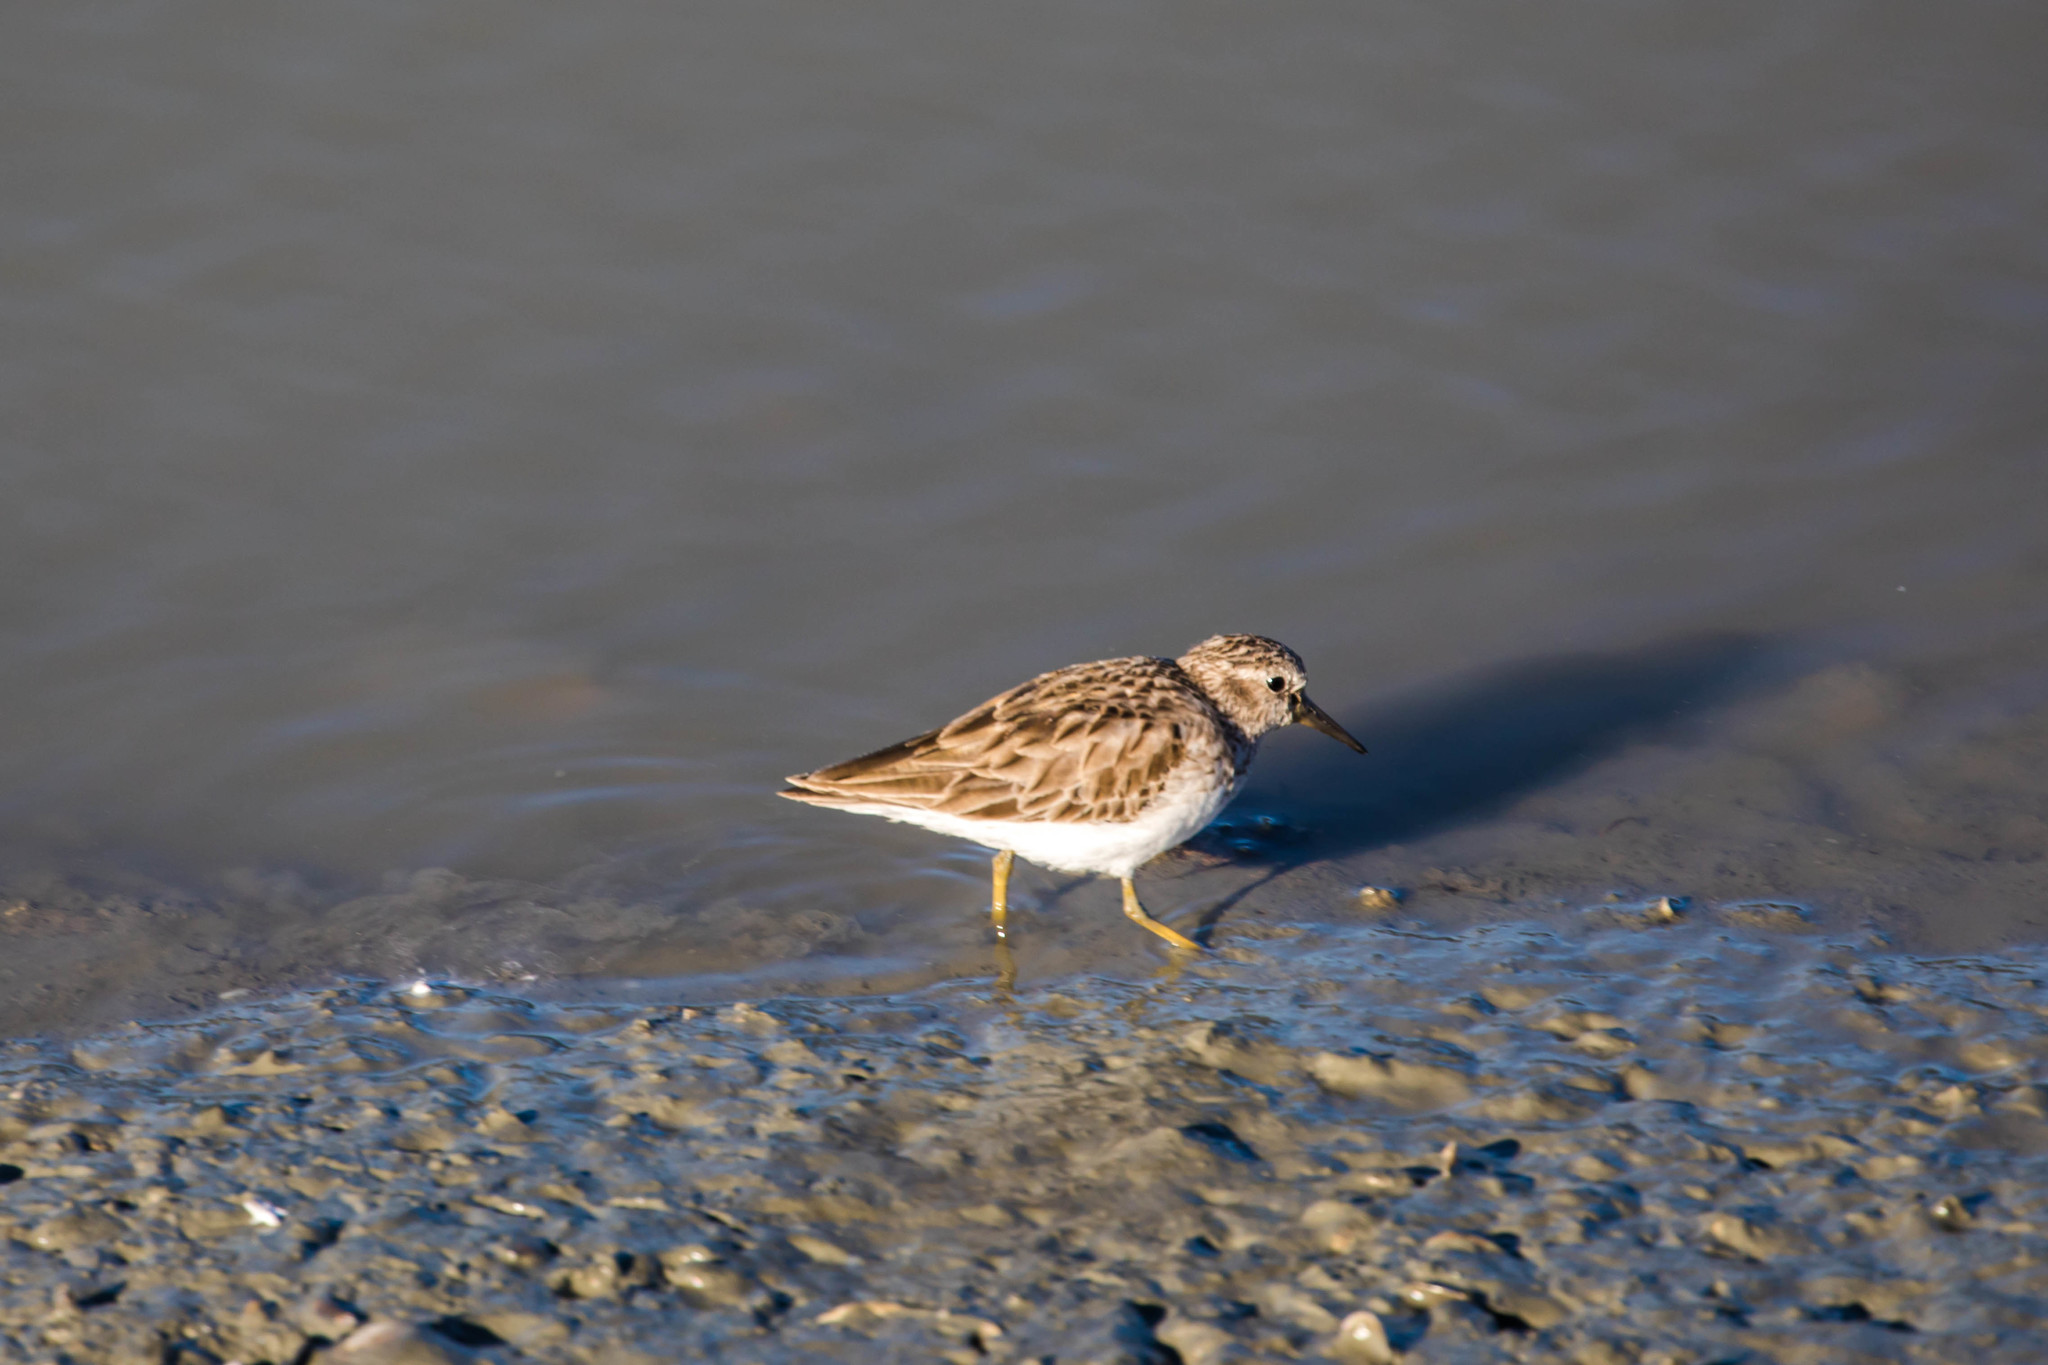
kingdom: Animalia
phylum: Chordata
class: Aves
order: Charadriiformes
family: Scolopacidae
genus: Calidris
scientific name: Calidris minutilla
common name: Least sandpiper
